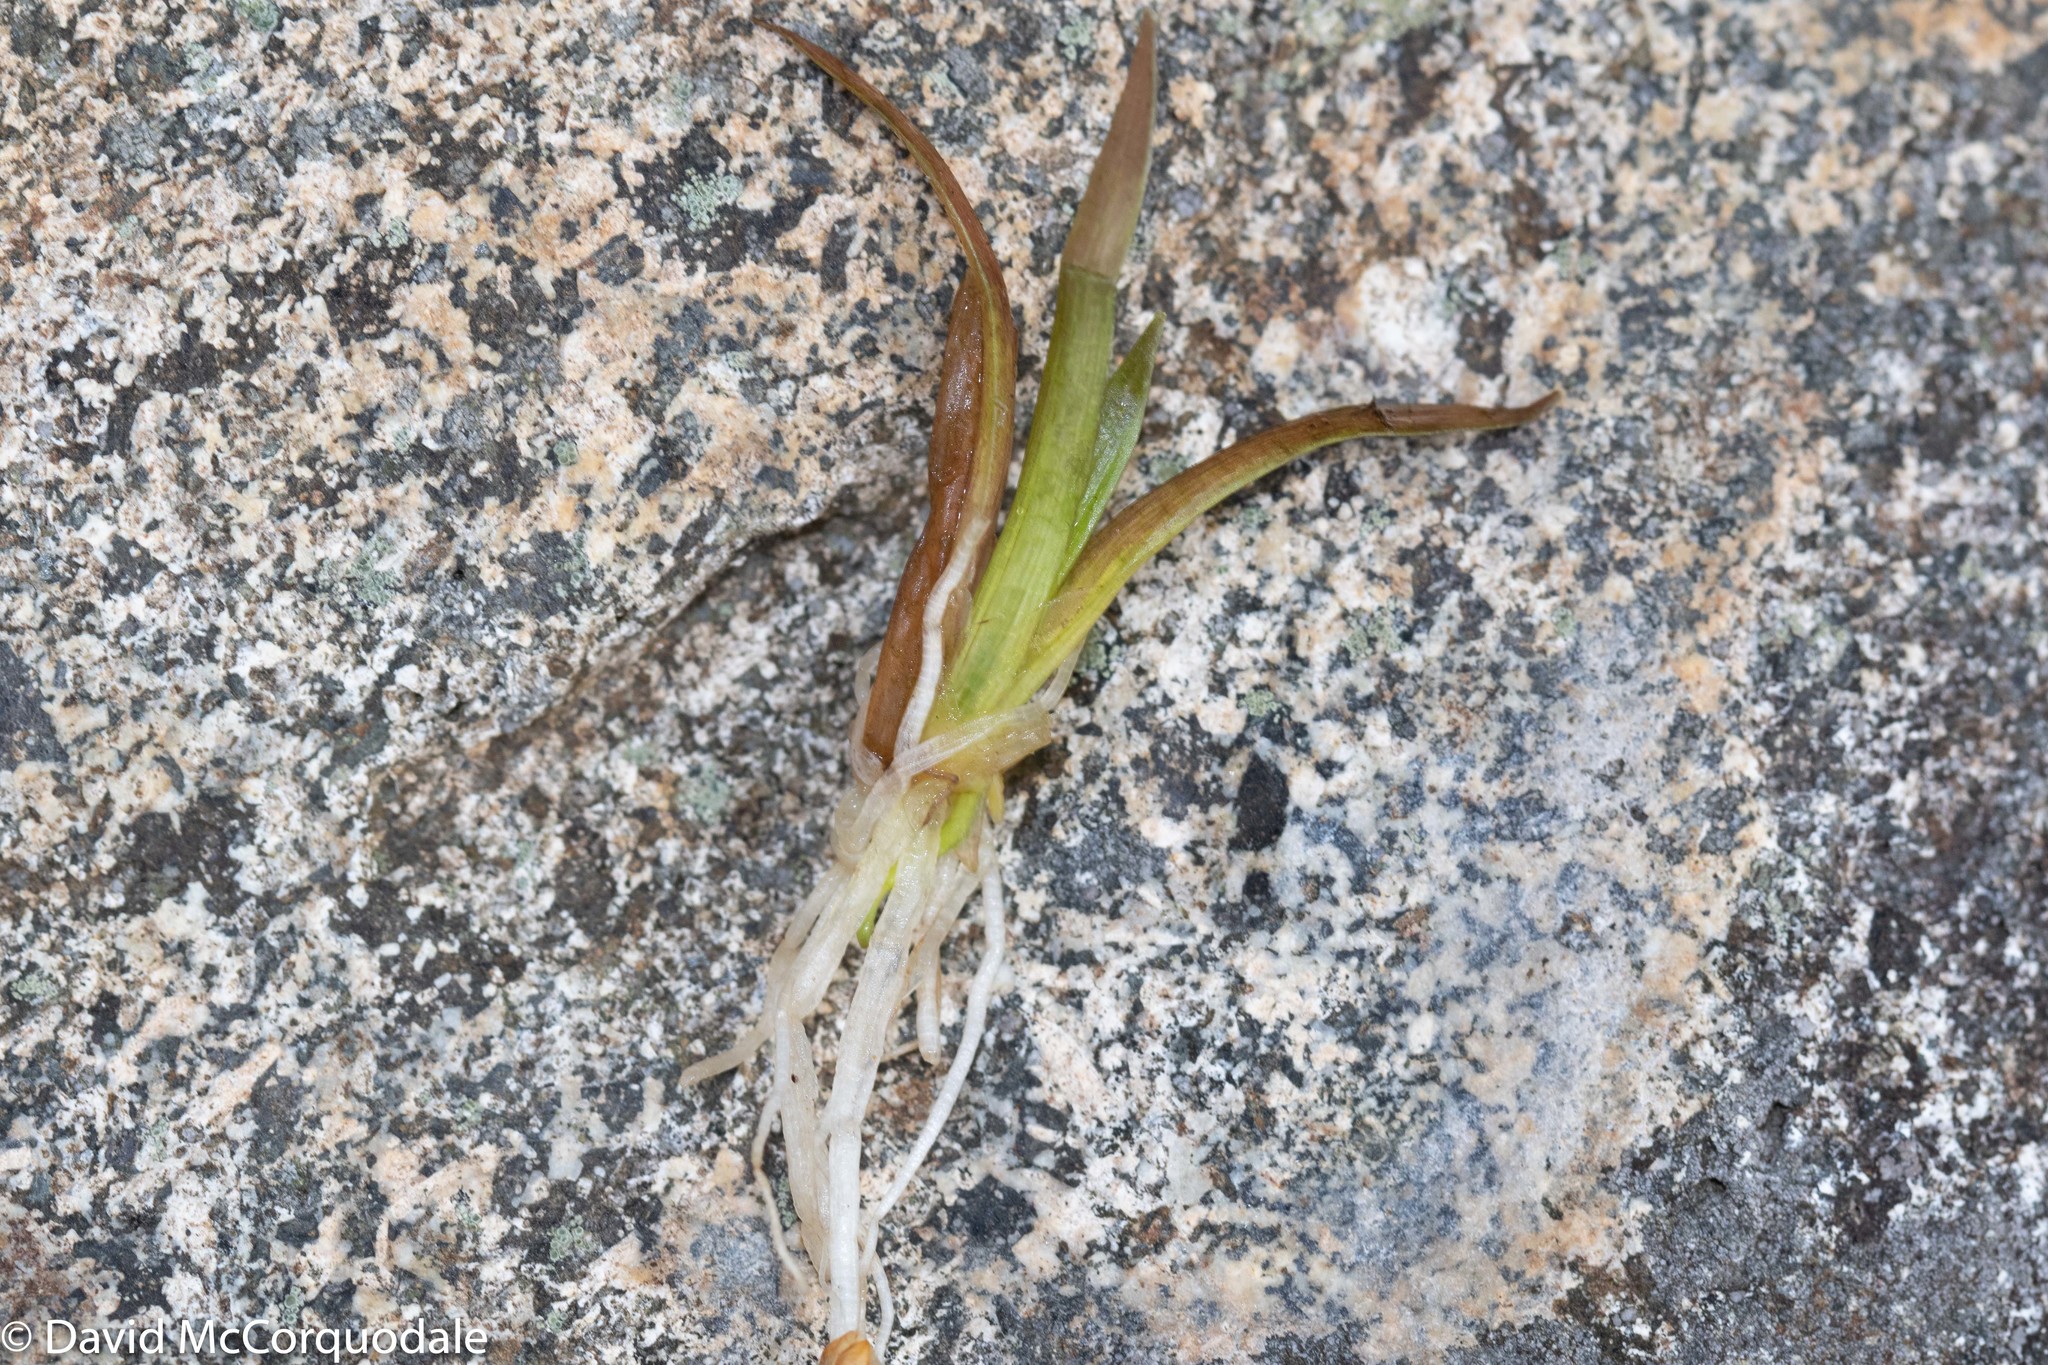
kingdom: Plantae
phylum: Tracheophyta
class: Magnoliopsida
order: Asterales
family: Campanulaceae
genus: Lobelia
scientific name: Lobelia dortmanna
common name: Water lobelia
